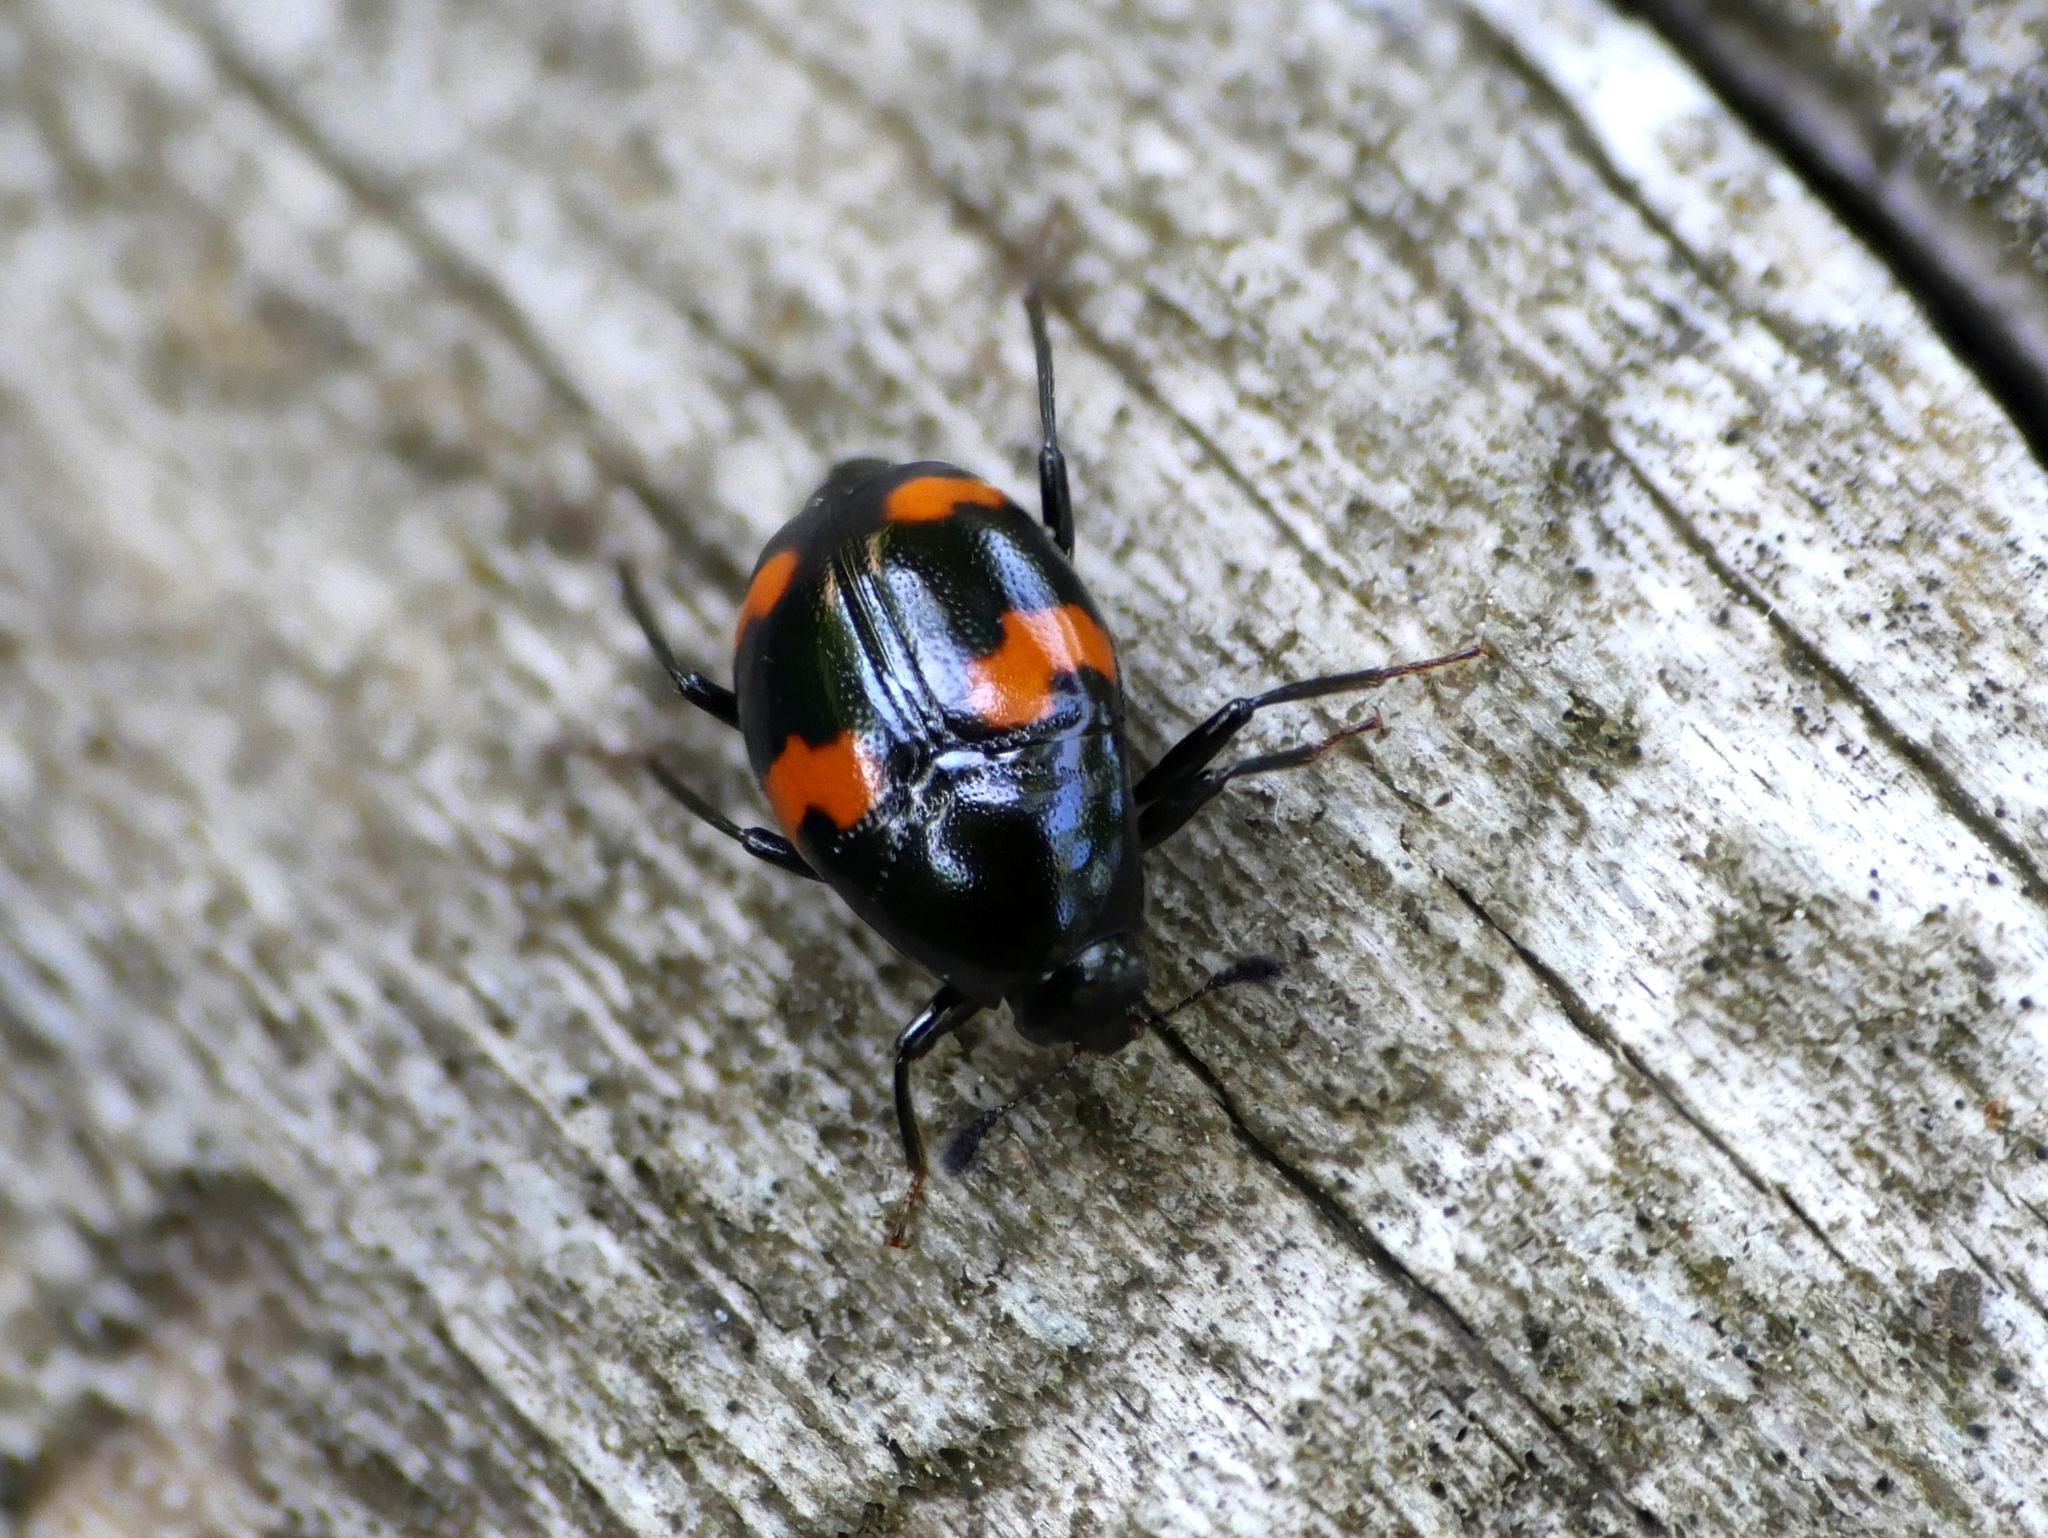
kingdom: Animalia
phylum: Arthropoda
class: Insecta
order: Coleoptera
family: Staphylinidae
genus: Scaphidium
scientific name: Scaphidium quadrimaculatum
